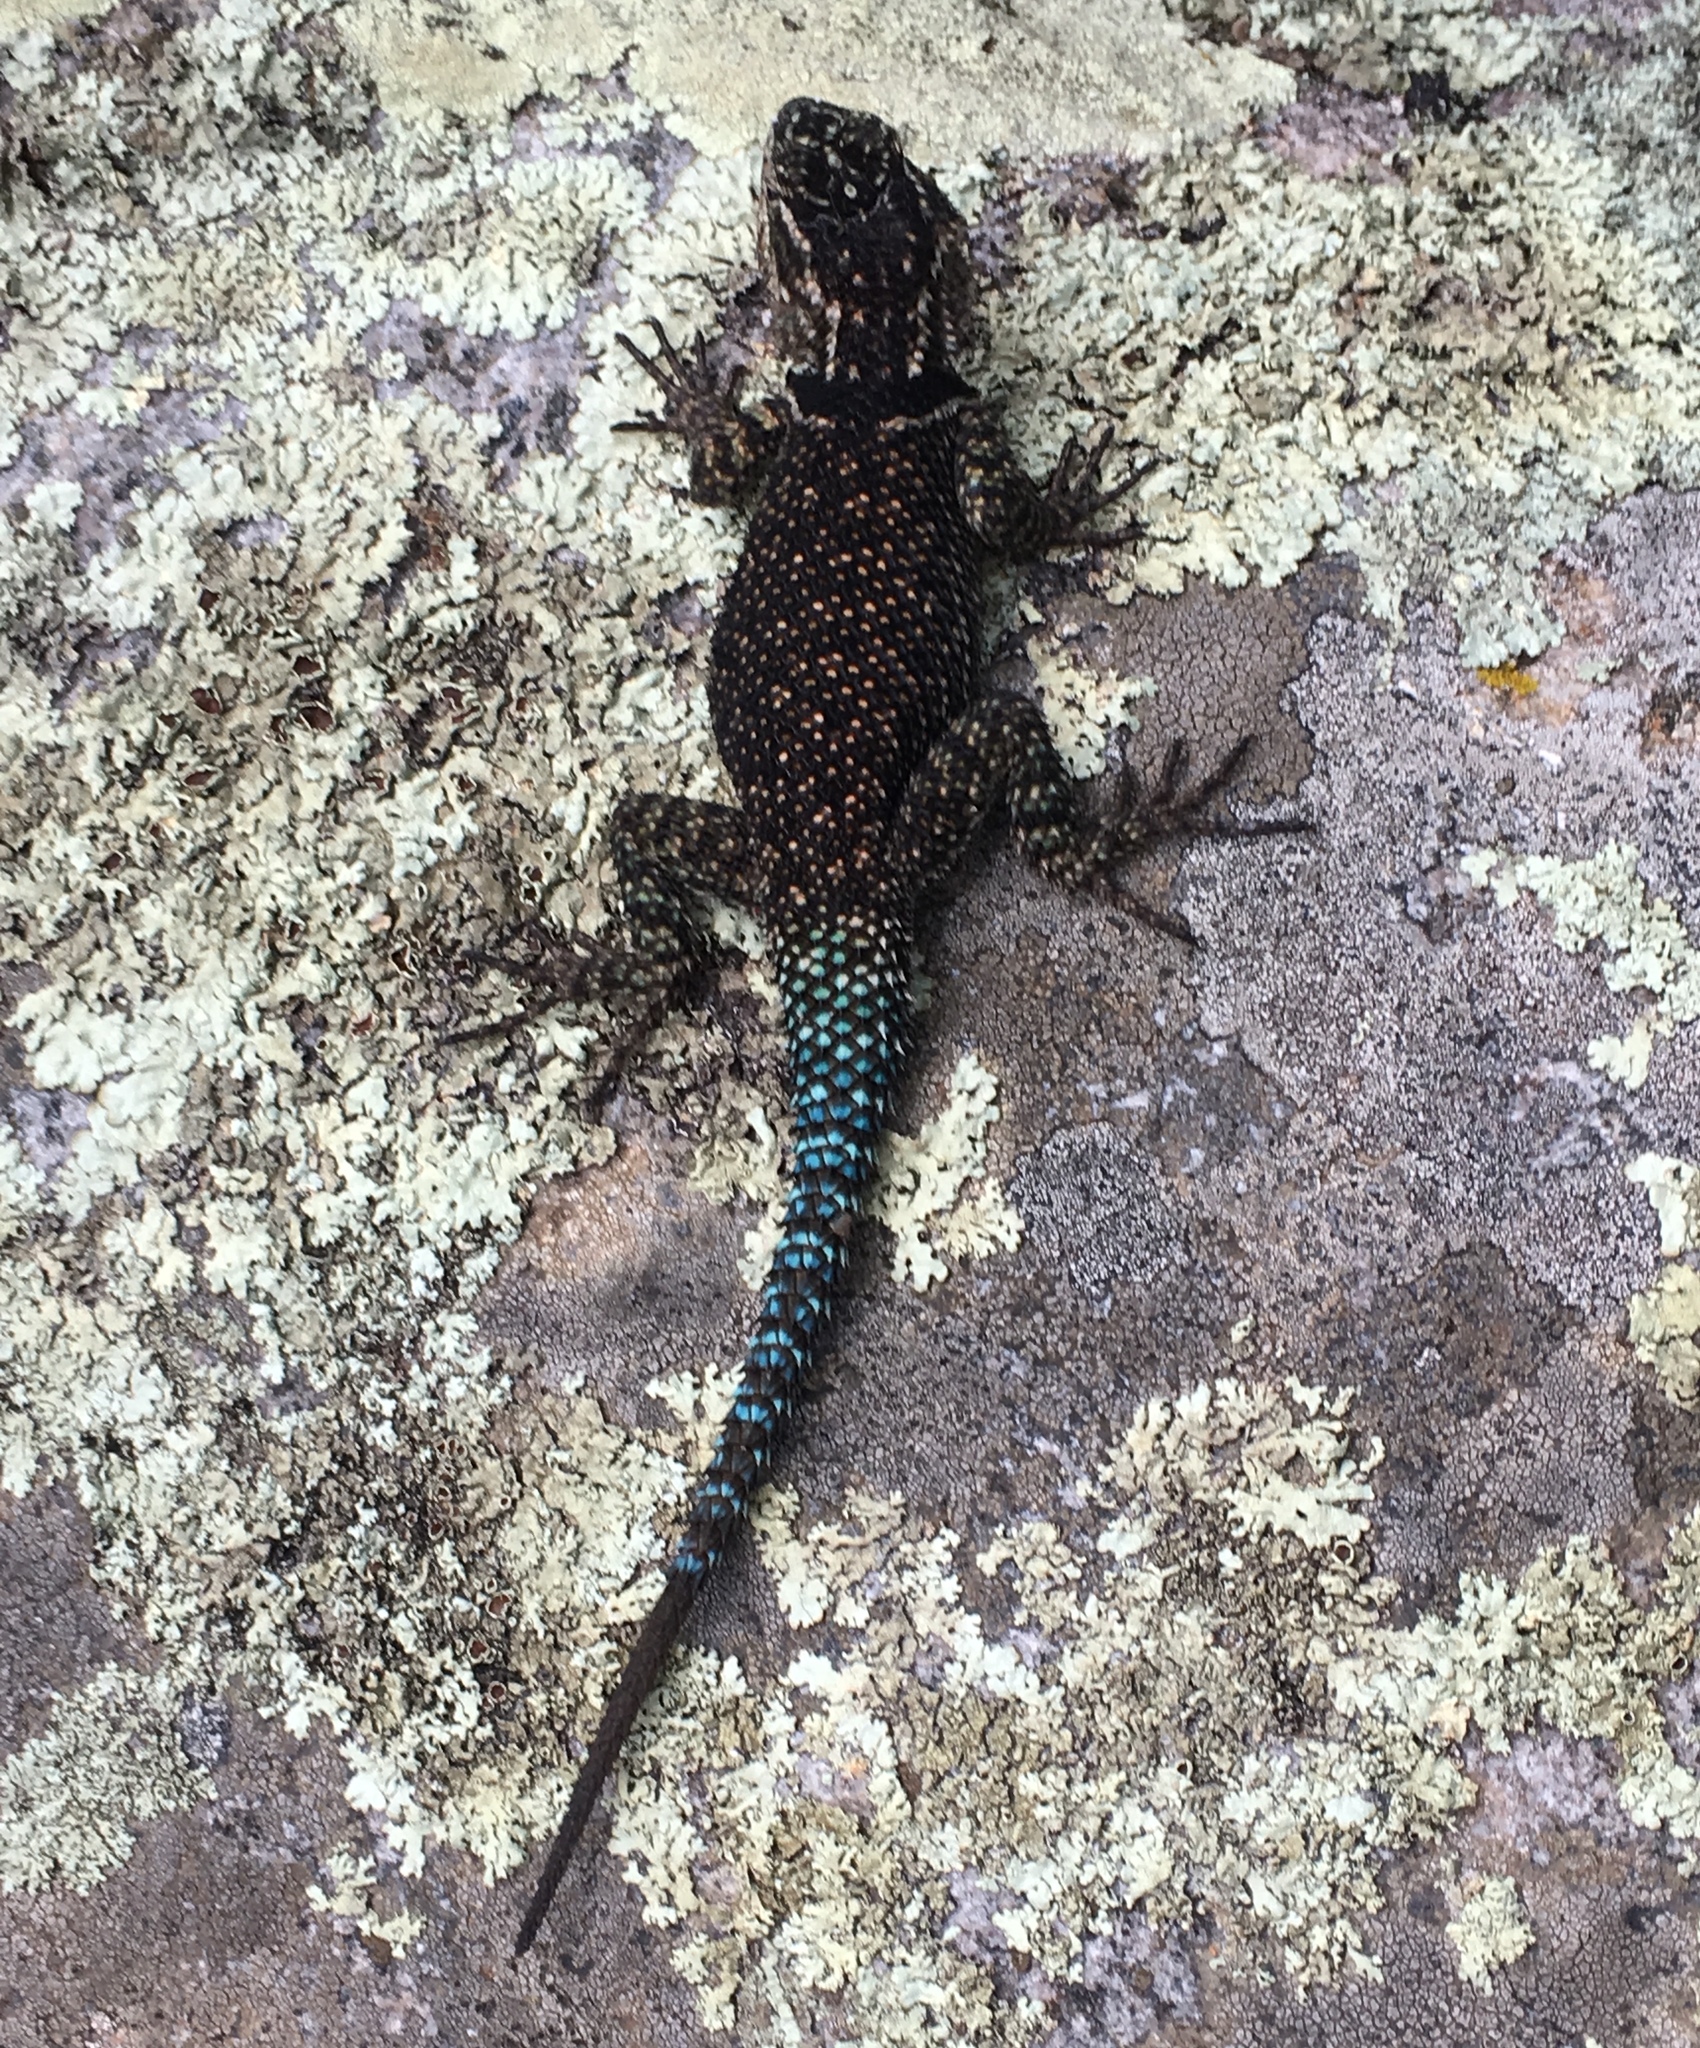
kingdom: Animalia
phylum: Chordata
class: Squamata
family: Phrynosomatidae
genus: Sceloporus
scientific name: Sceloporus jarrovii
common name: Yarrow's spiny lizard
